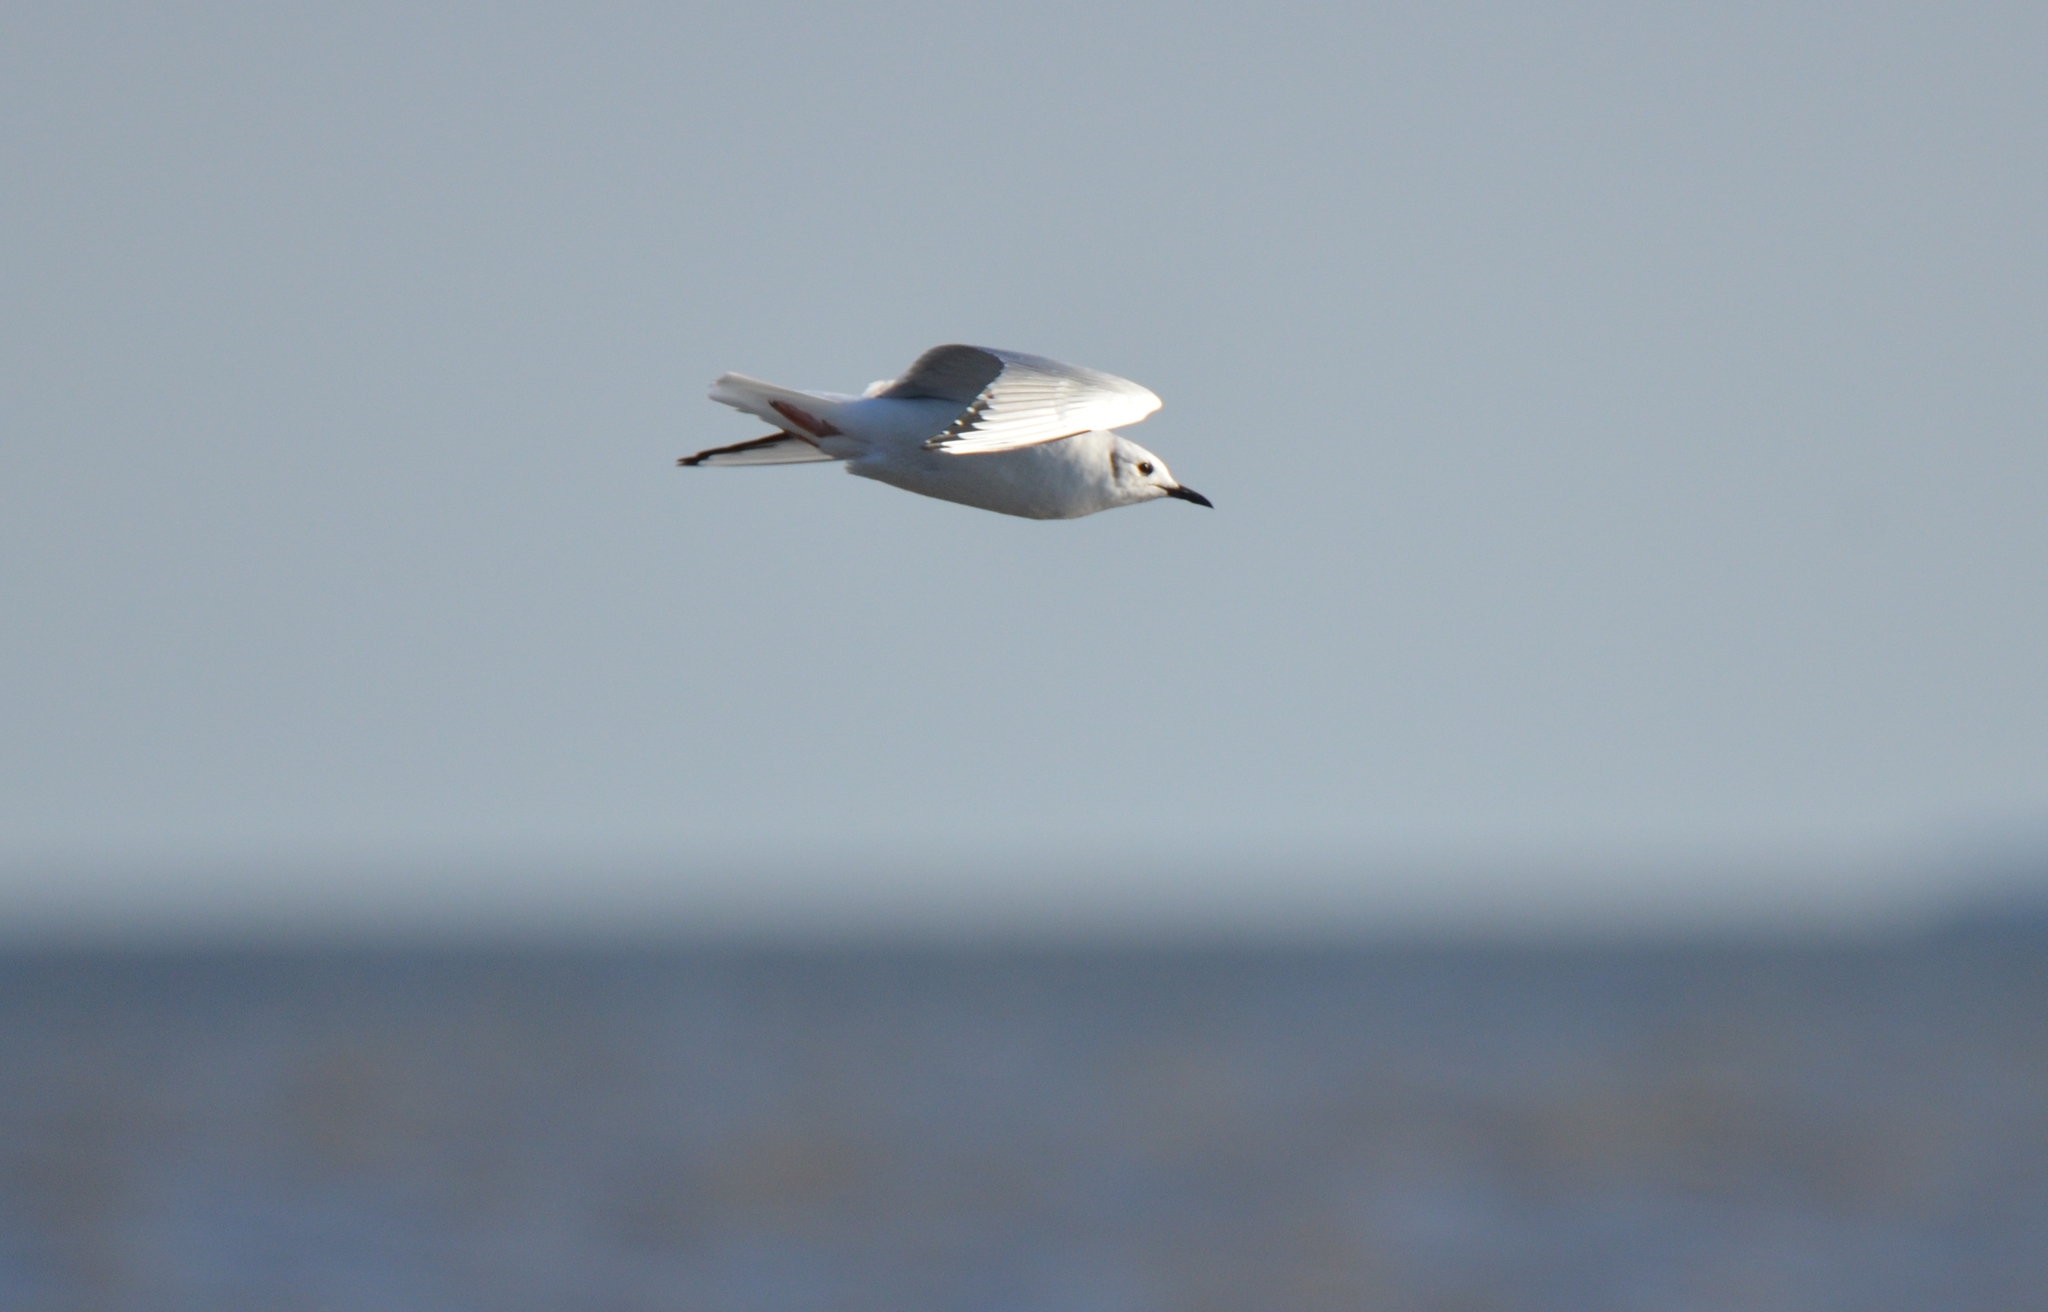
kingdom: Animalia
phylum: Chordata
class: Aves
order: Charadriiformes
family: Laridae
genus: Chroicocephalus
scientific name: Chroicocephalus philadelphia
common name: Bonaparte's gull
